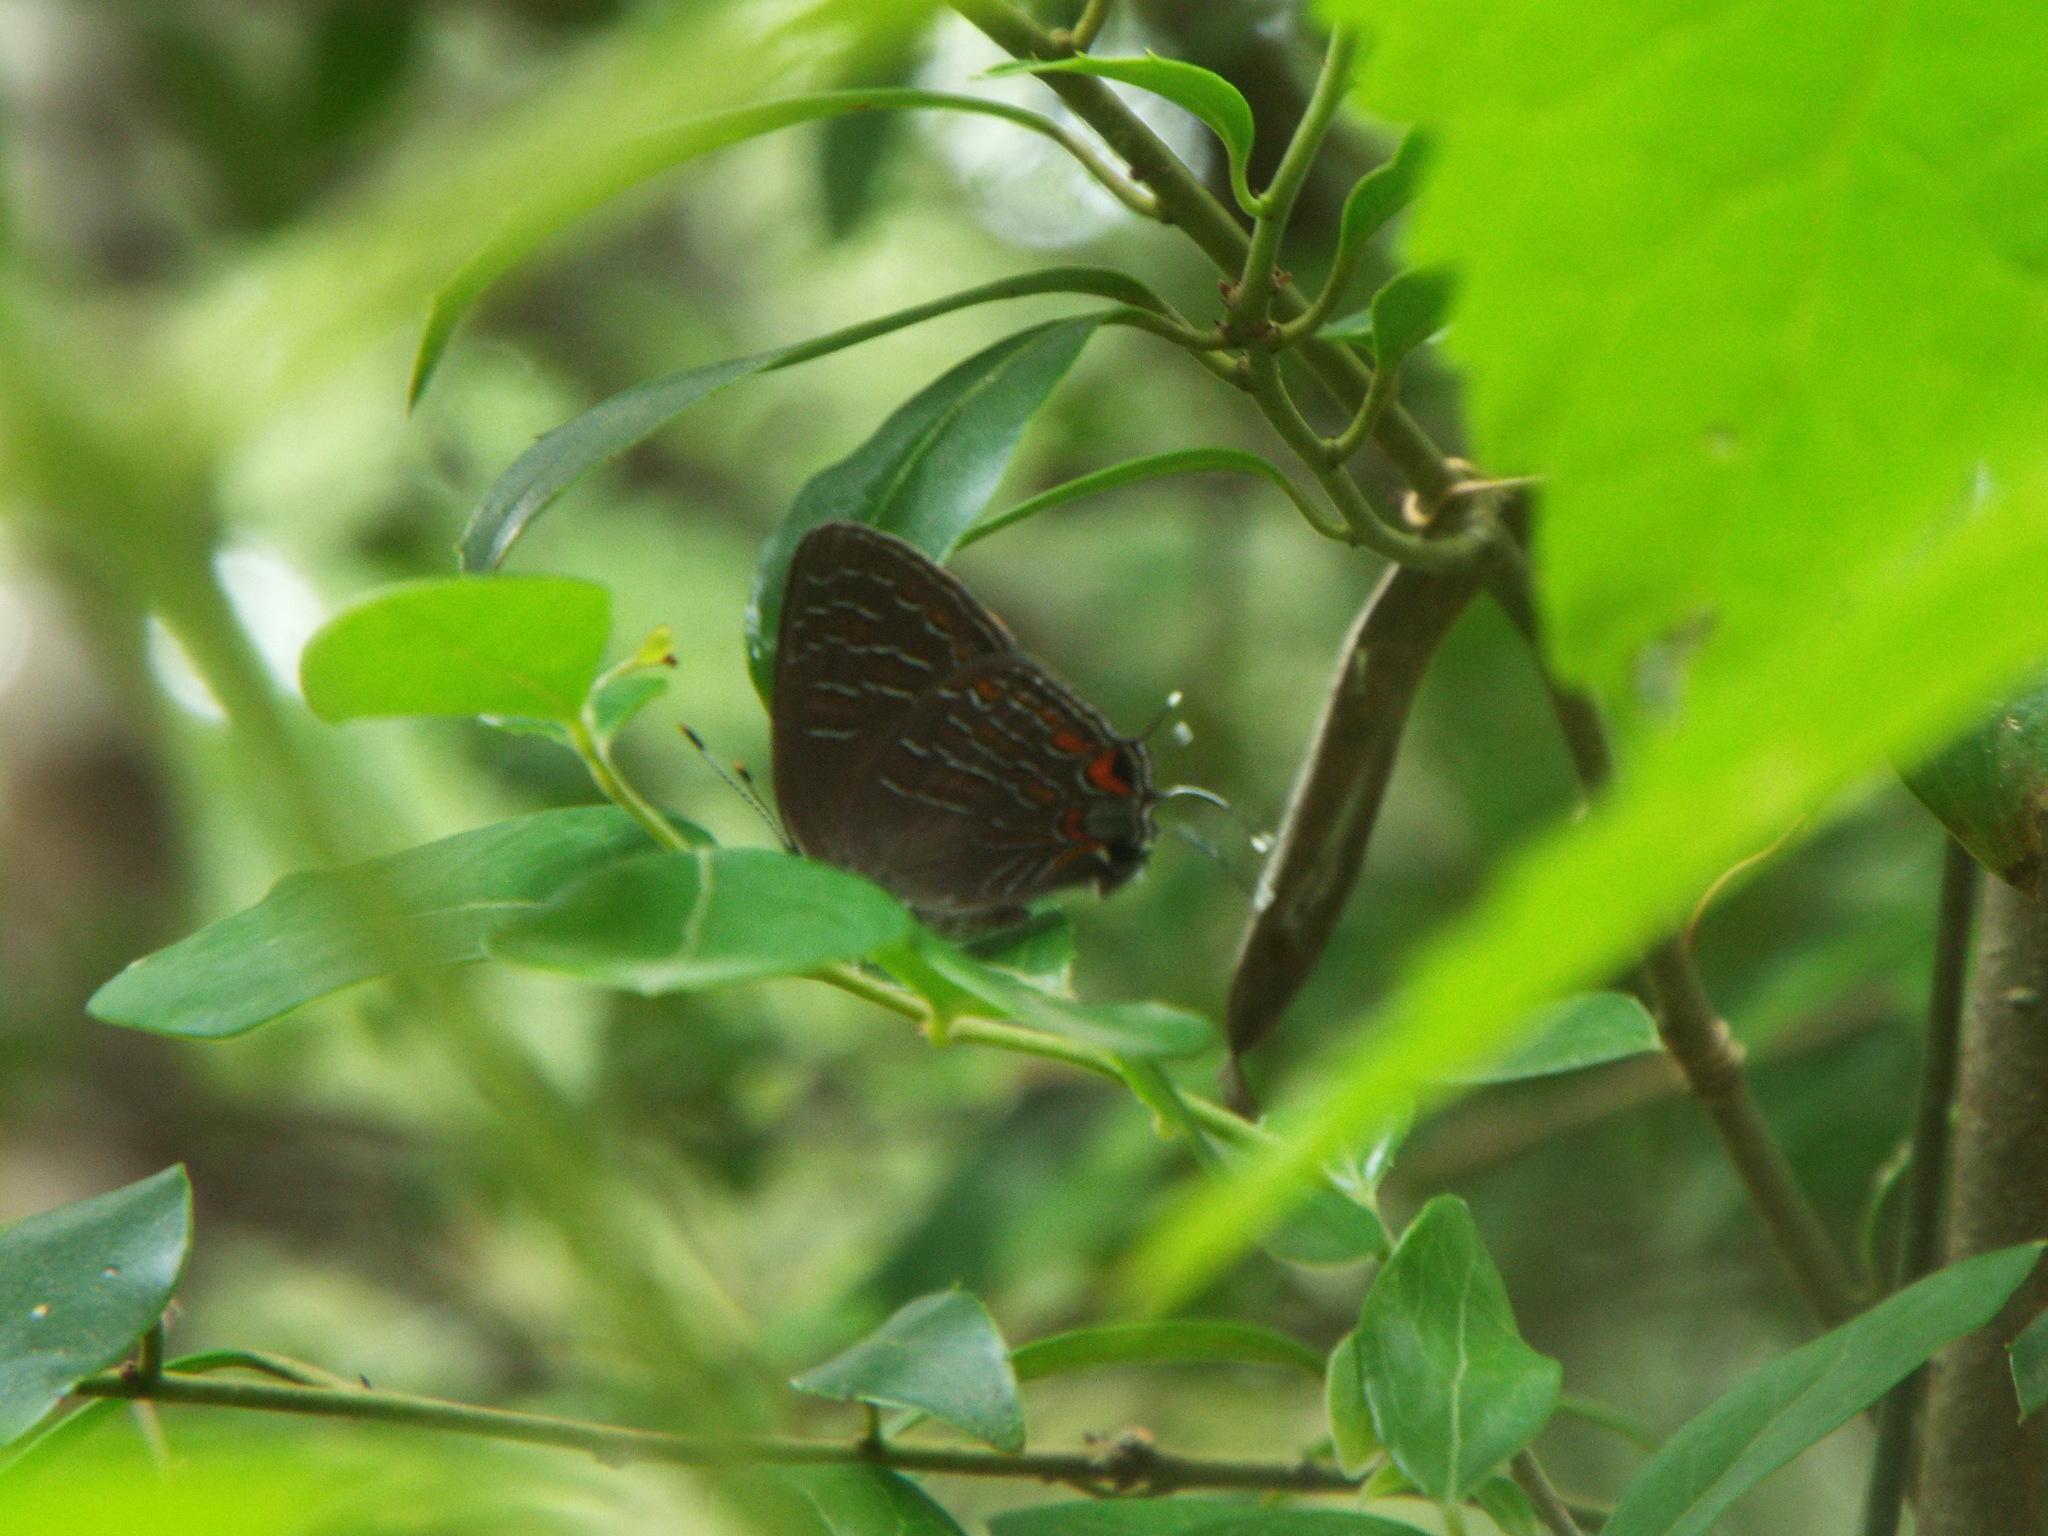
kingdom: Animalia
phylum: Arthropoda
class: Insecta
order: Lepidoptera
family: Lycaenidae
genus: Satyrium
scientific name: Satyrium liparops
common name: Striped hairstreak
